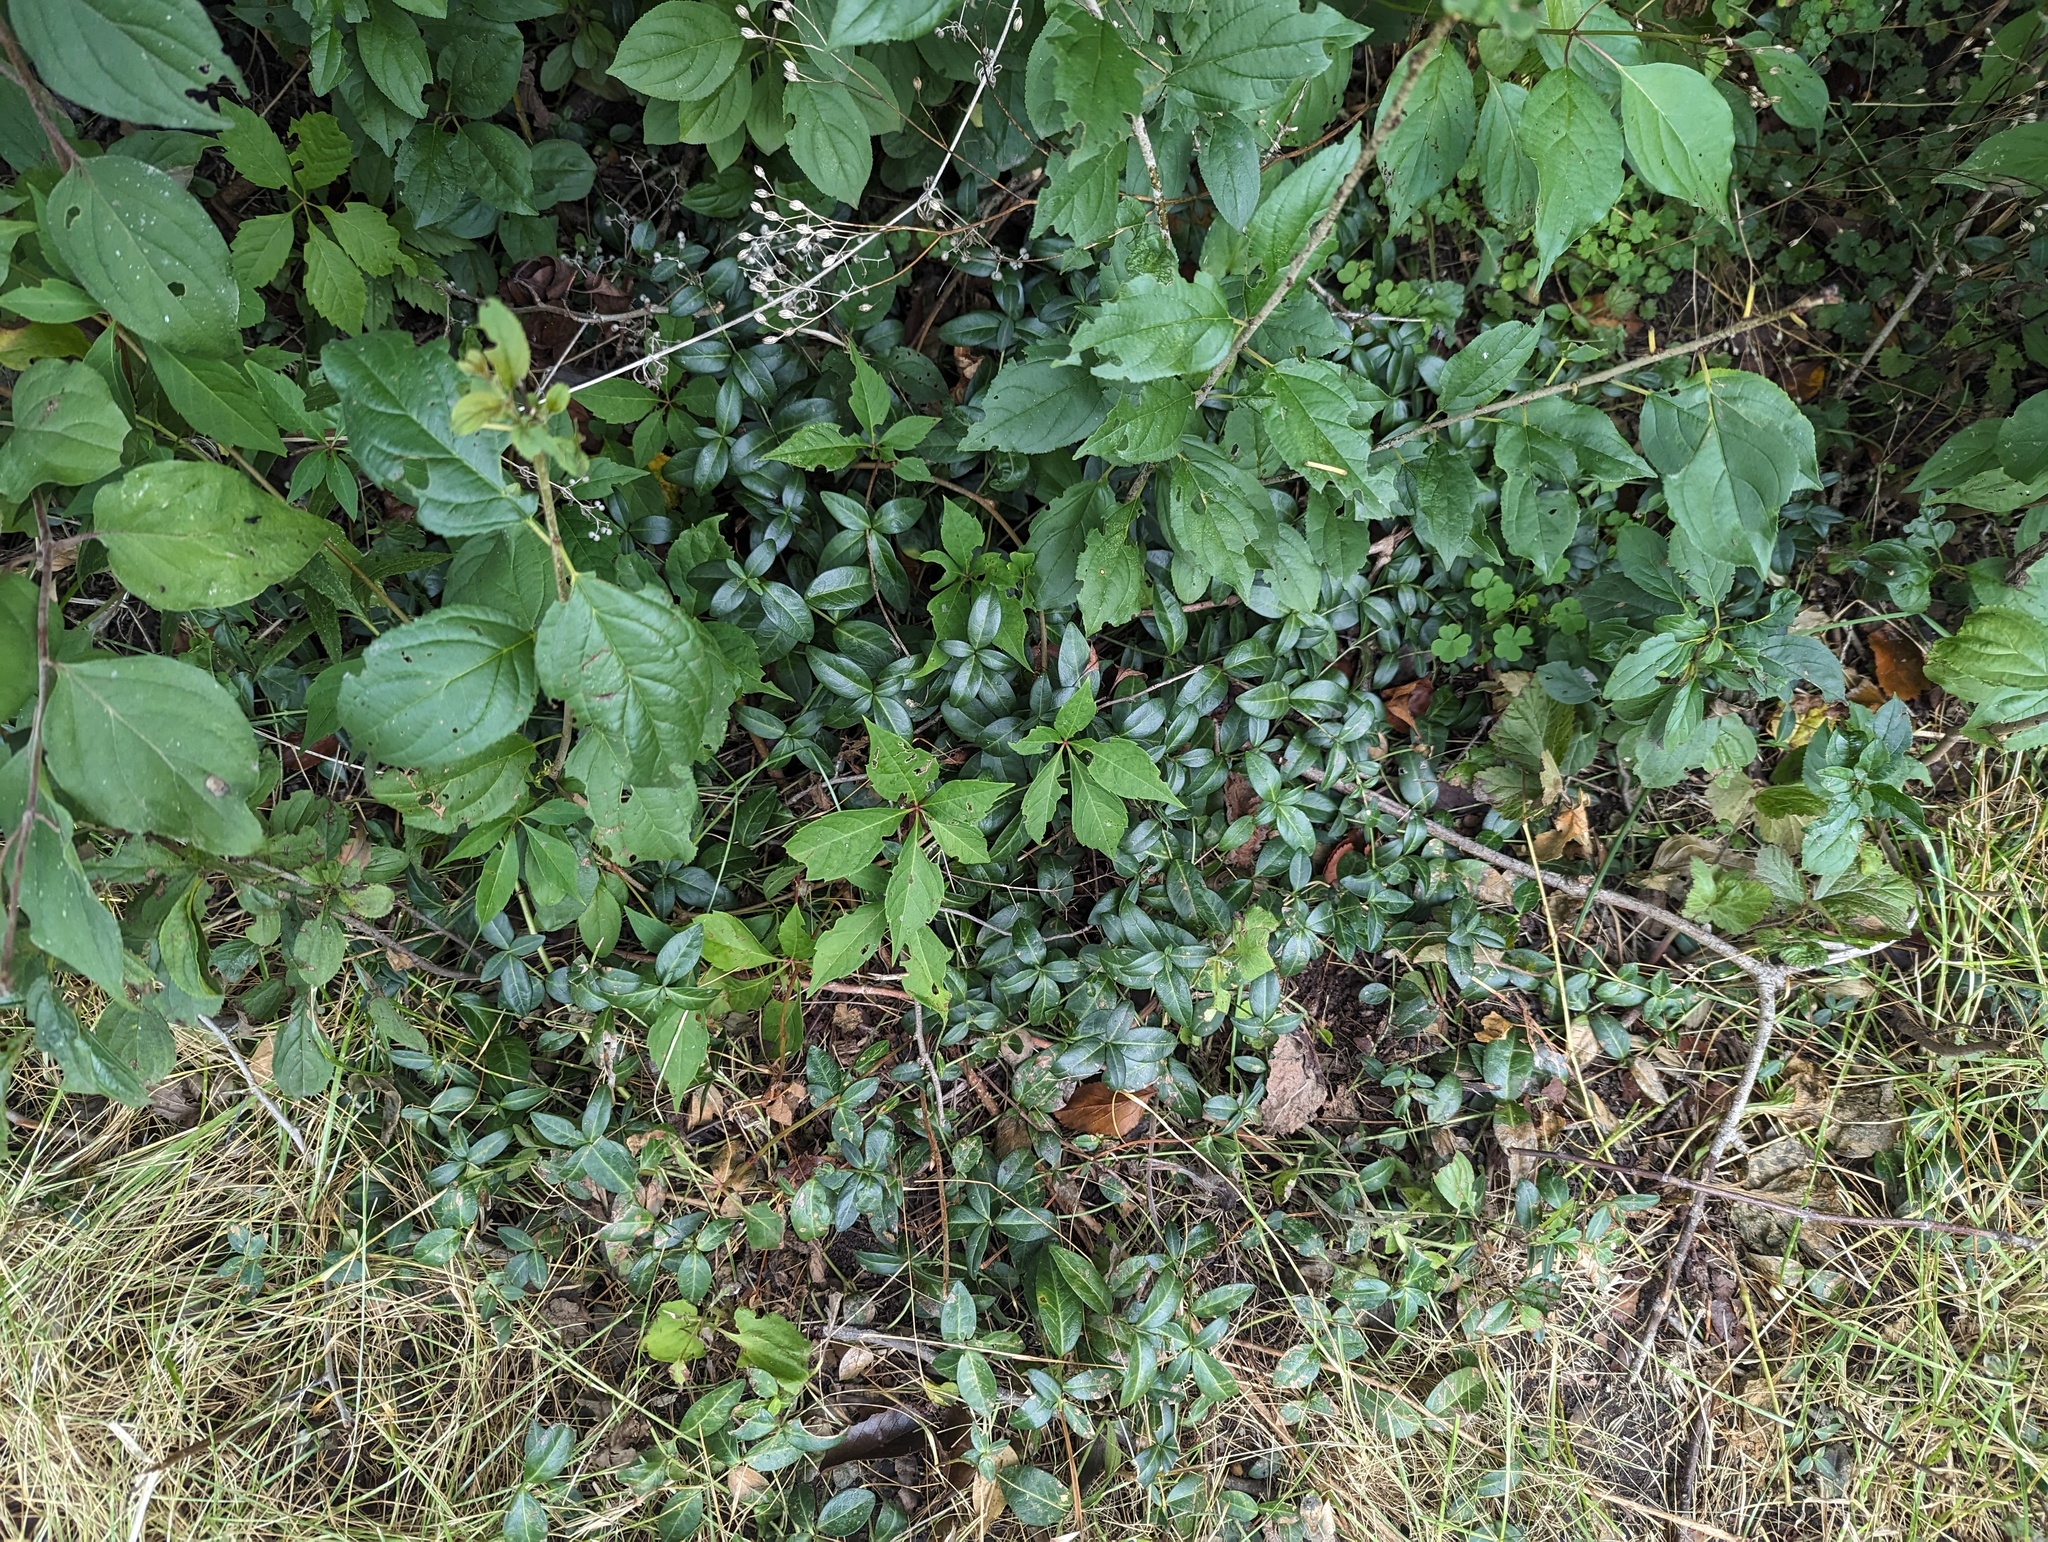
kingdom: Plantae
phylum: Tracheophyta
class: Magnoliopsida
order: Gentianales
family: Apocynaceae
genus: Vinca
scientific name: Vinca minor
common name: Lesser periwinkle
